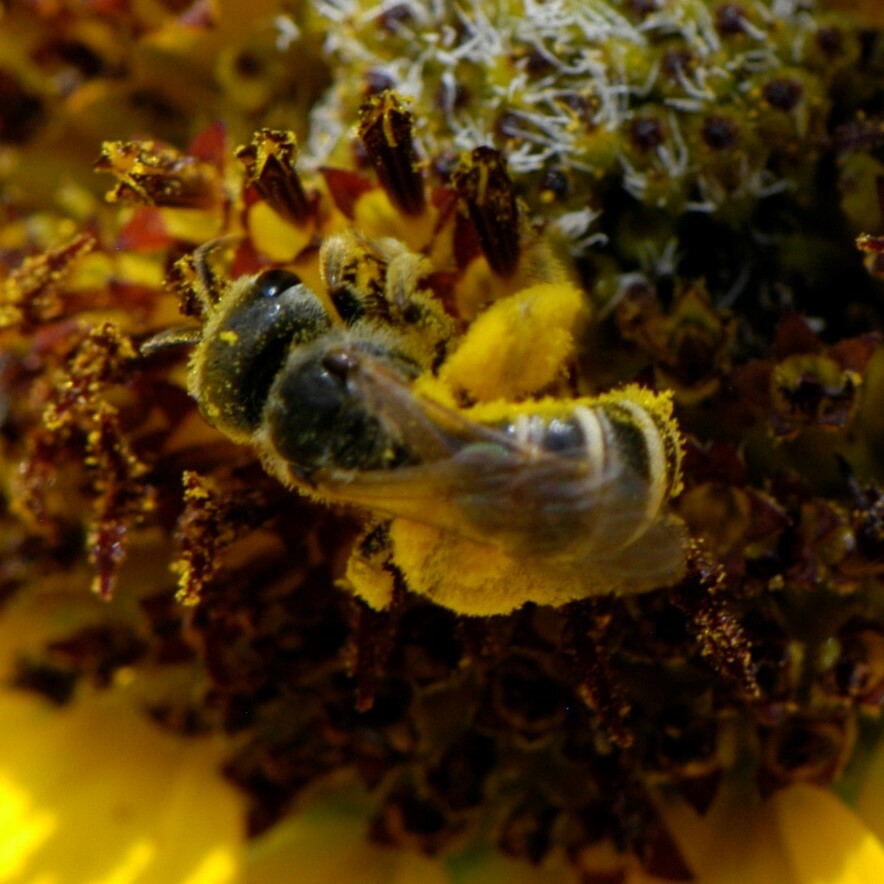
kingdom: Animalia
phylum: Arthropoda
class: Insecta
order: Hymenoptera
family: Halictidae
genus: Halictus
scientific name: Halictus ligatus
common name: Ligated furrow bee
